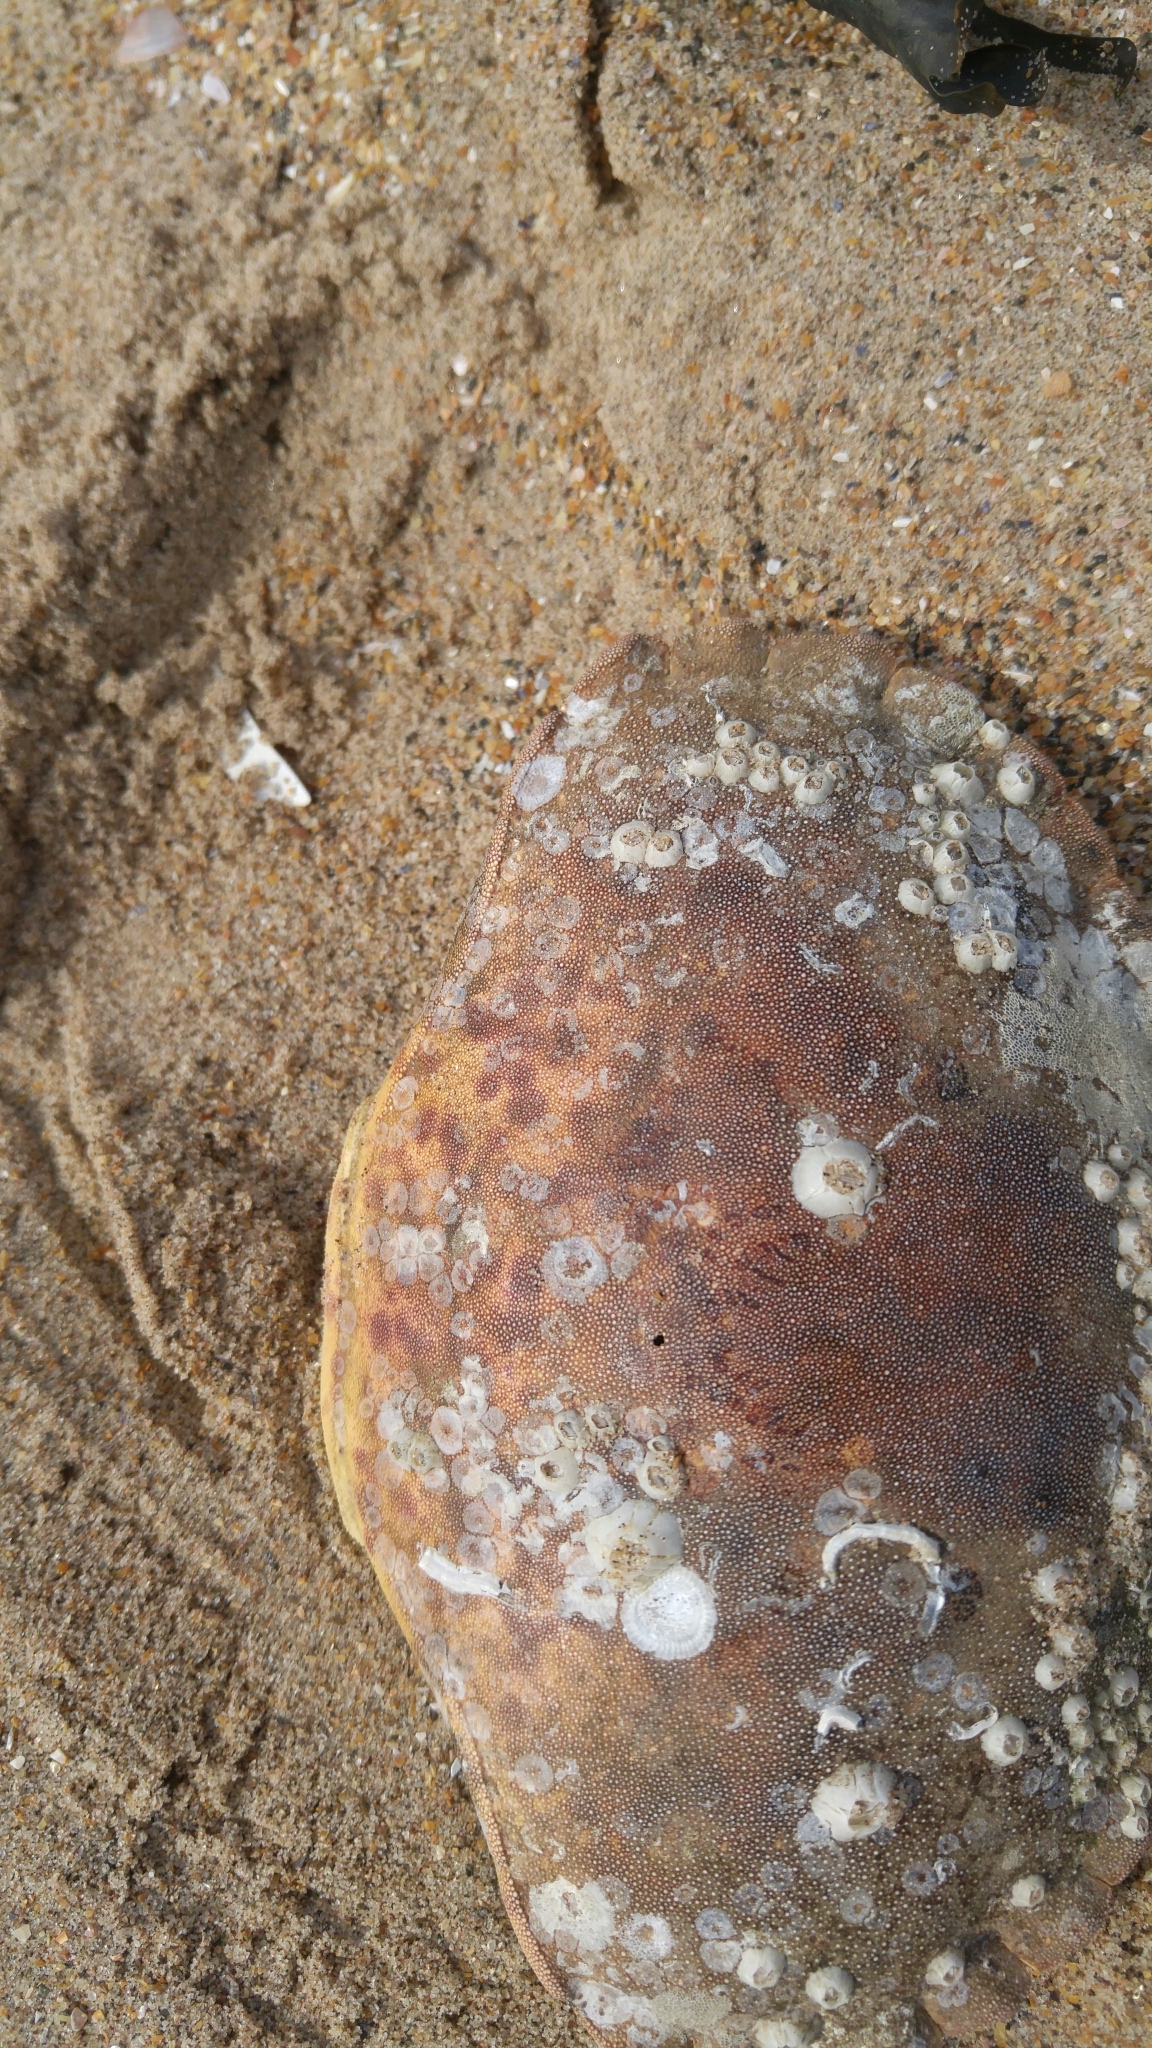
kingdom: Animalia
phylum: Arthropoda
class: Malacostraca
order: Decapoda
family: Cancridae
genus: Cancer
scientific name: Cancer pagurus
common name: Edible crab
